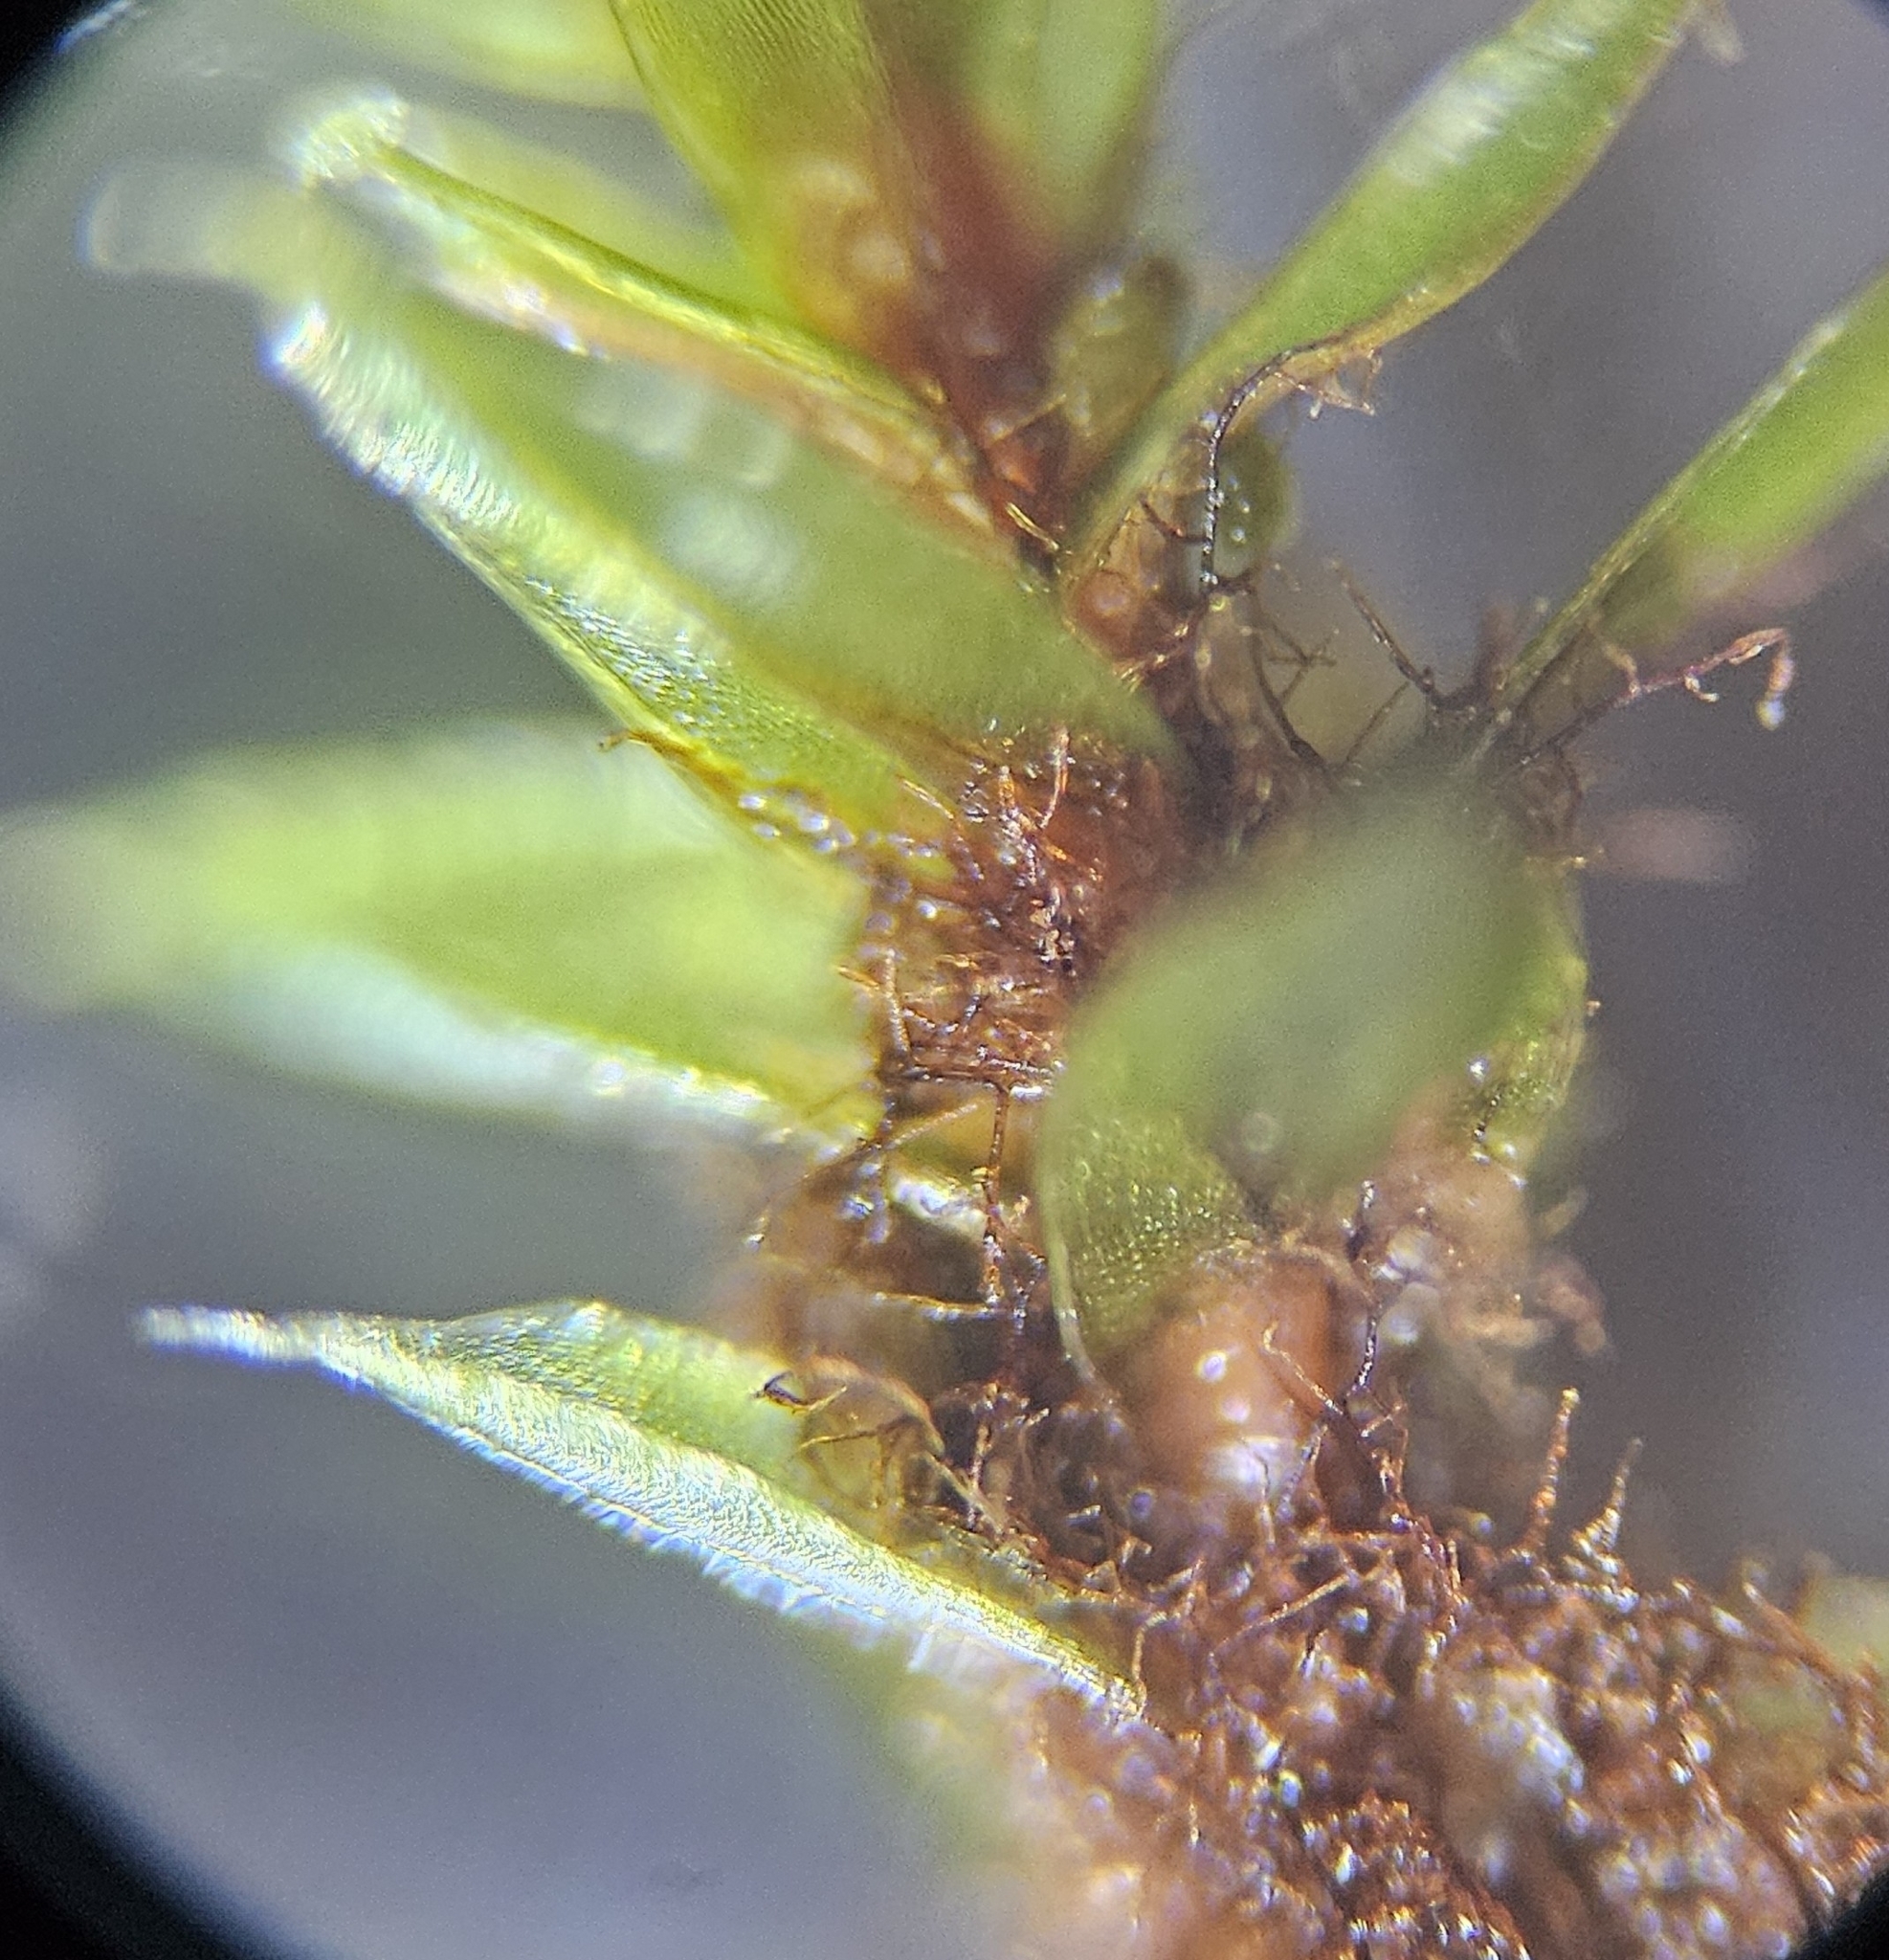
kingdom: Plantae
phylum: Bryophyta
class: Bryopsida
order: Bryales
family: Bryaceae
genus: Ptychostomum
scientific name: Ptychostomum pseudotriquetrum
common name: Long-leaved thread moss
